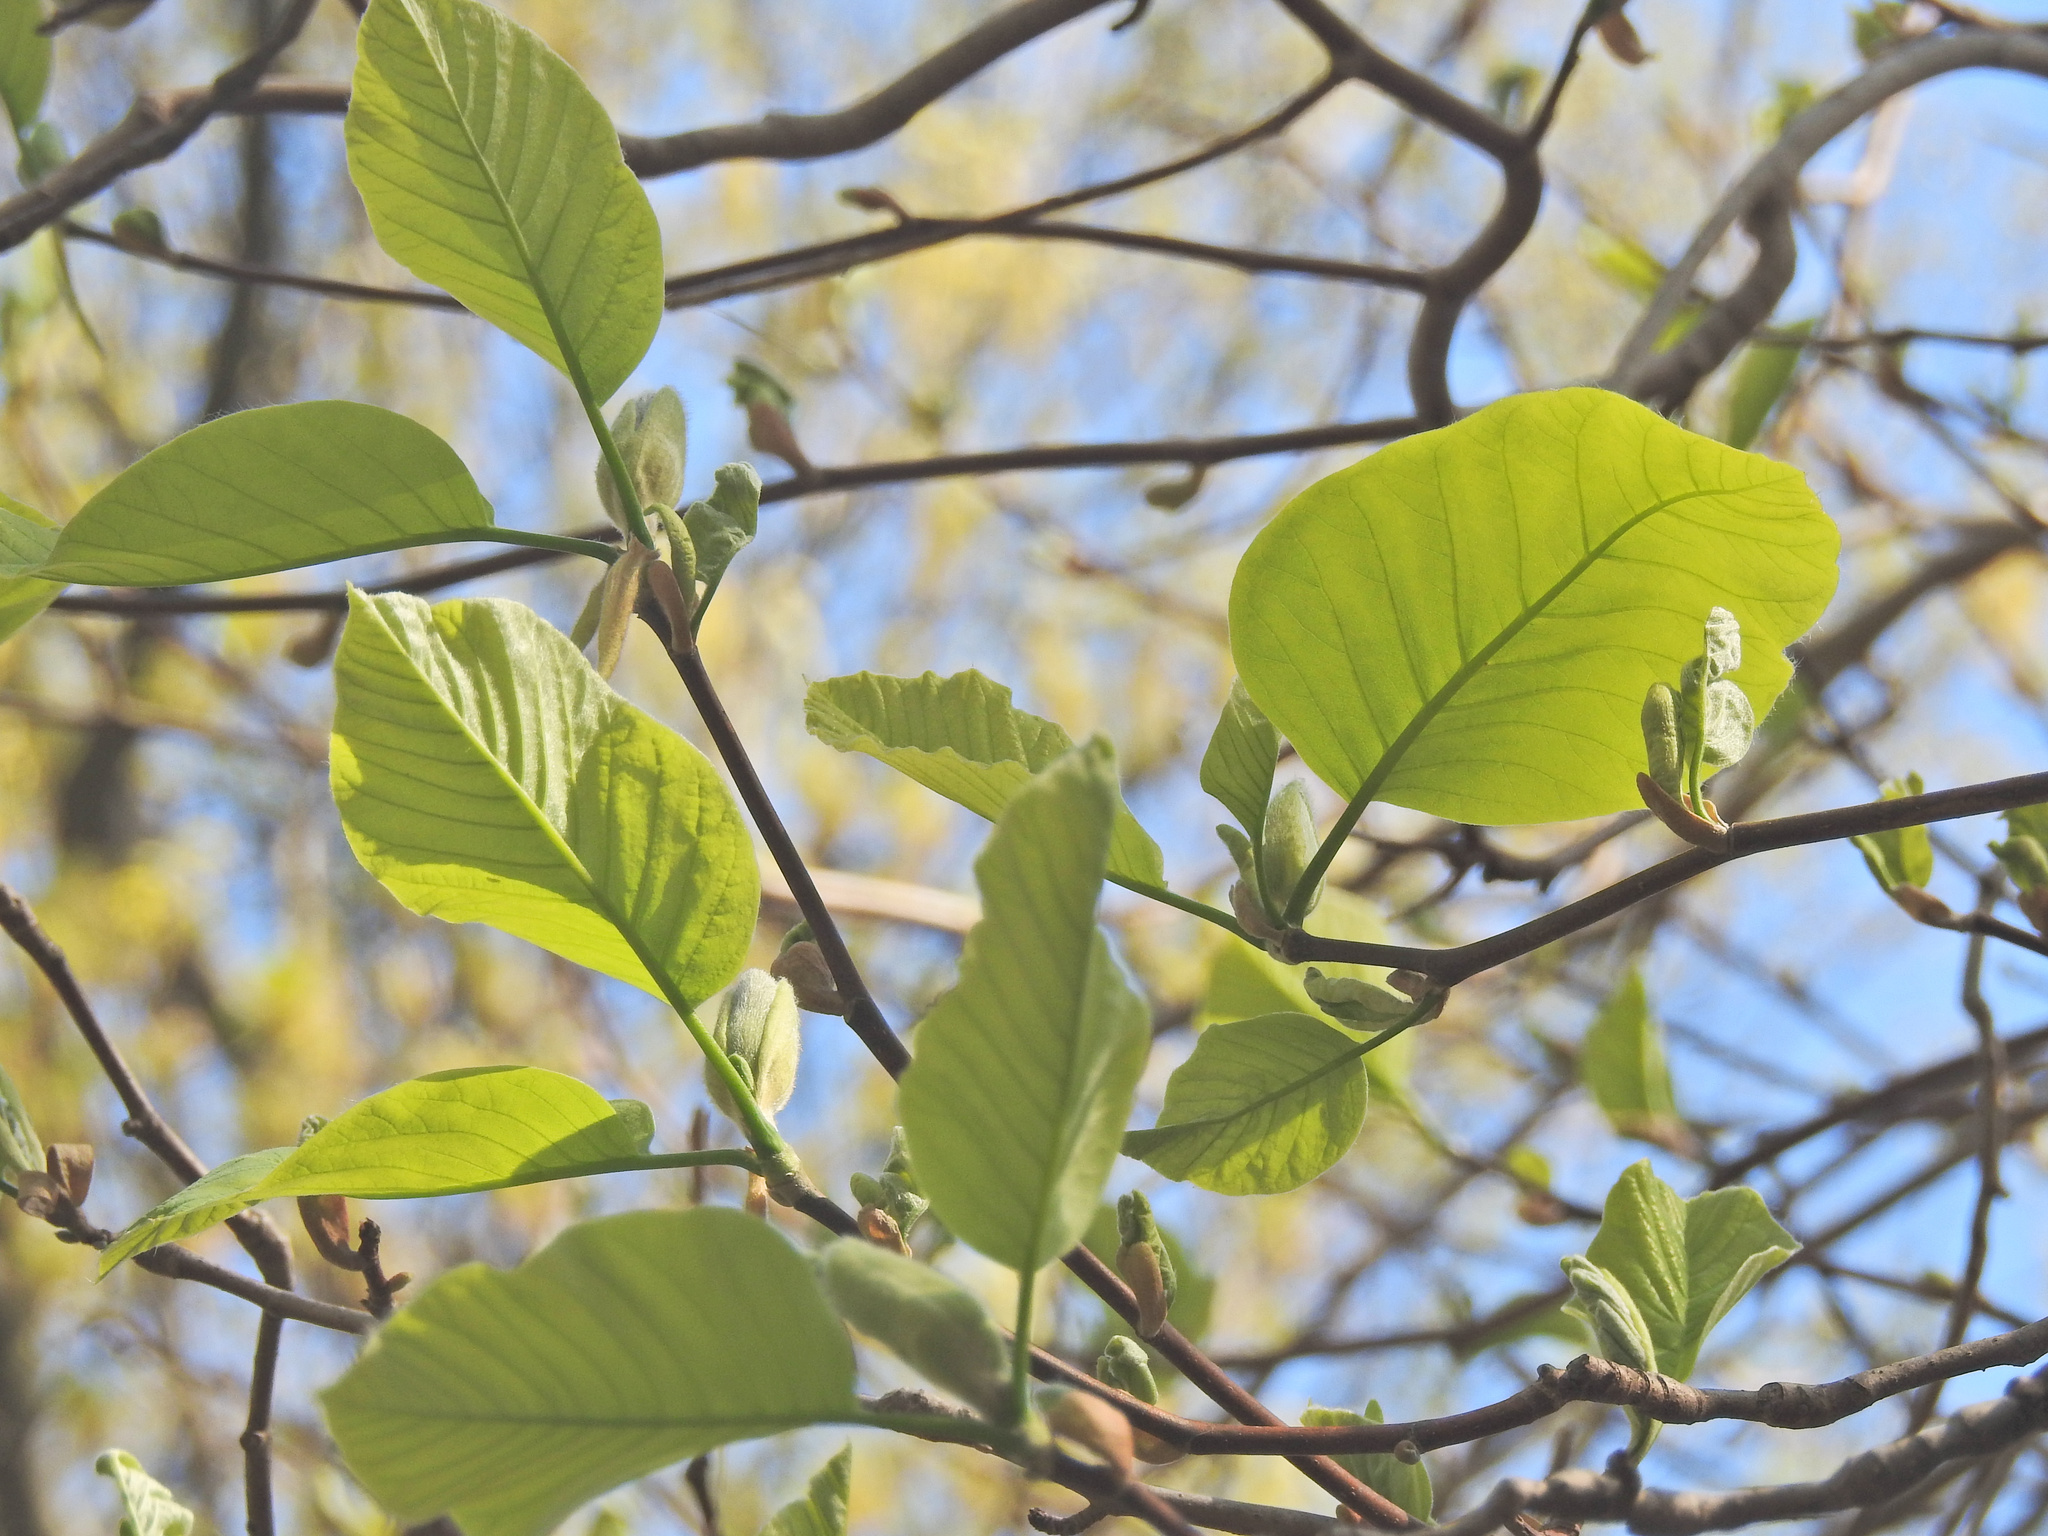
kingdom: Plantae
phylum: Tracheophyta
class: Magnoliopsida
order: Magnoliales
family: Magnoliaceae
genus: Magnolia
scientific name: Magnolia acuminata
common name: Cucumber magnolia
